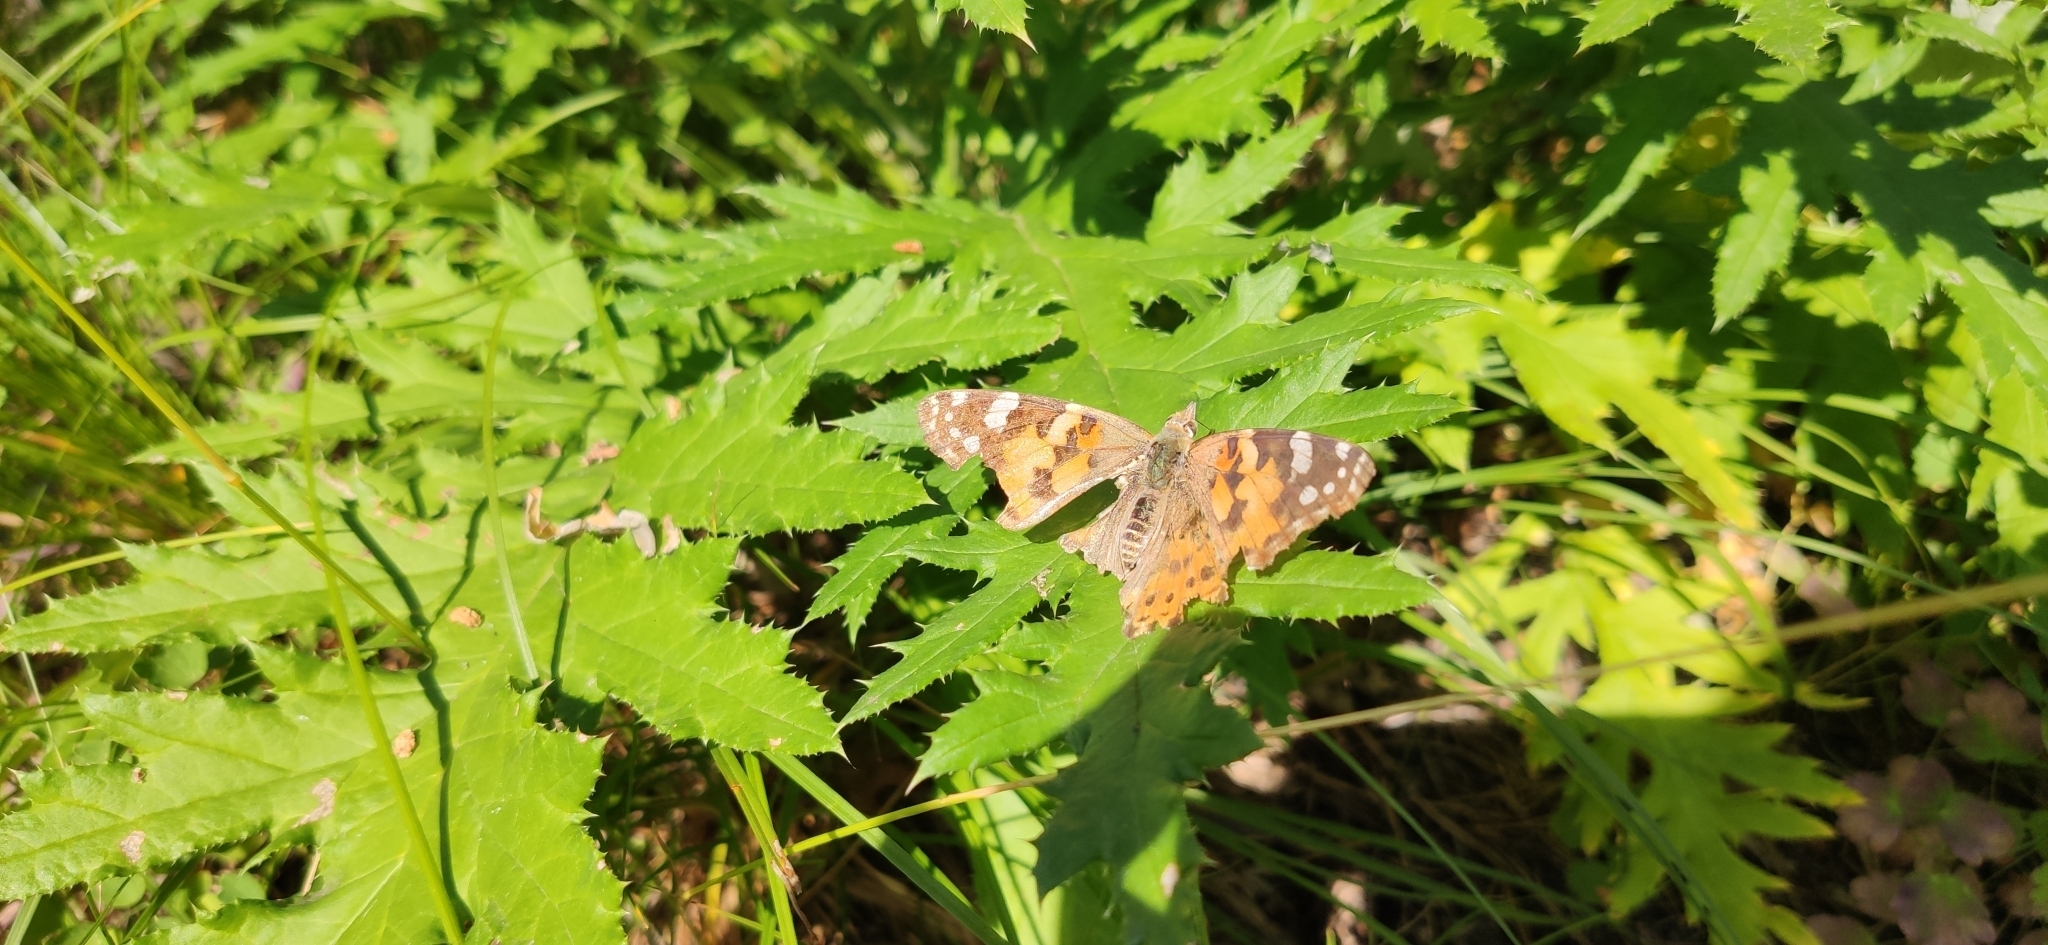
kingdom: Animalia
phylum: Arthropoda
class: Insecta
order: Lepidoptera
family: Nymphalidae
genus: Vanessa
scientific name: Vanessa cardui
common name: Painted lady
